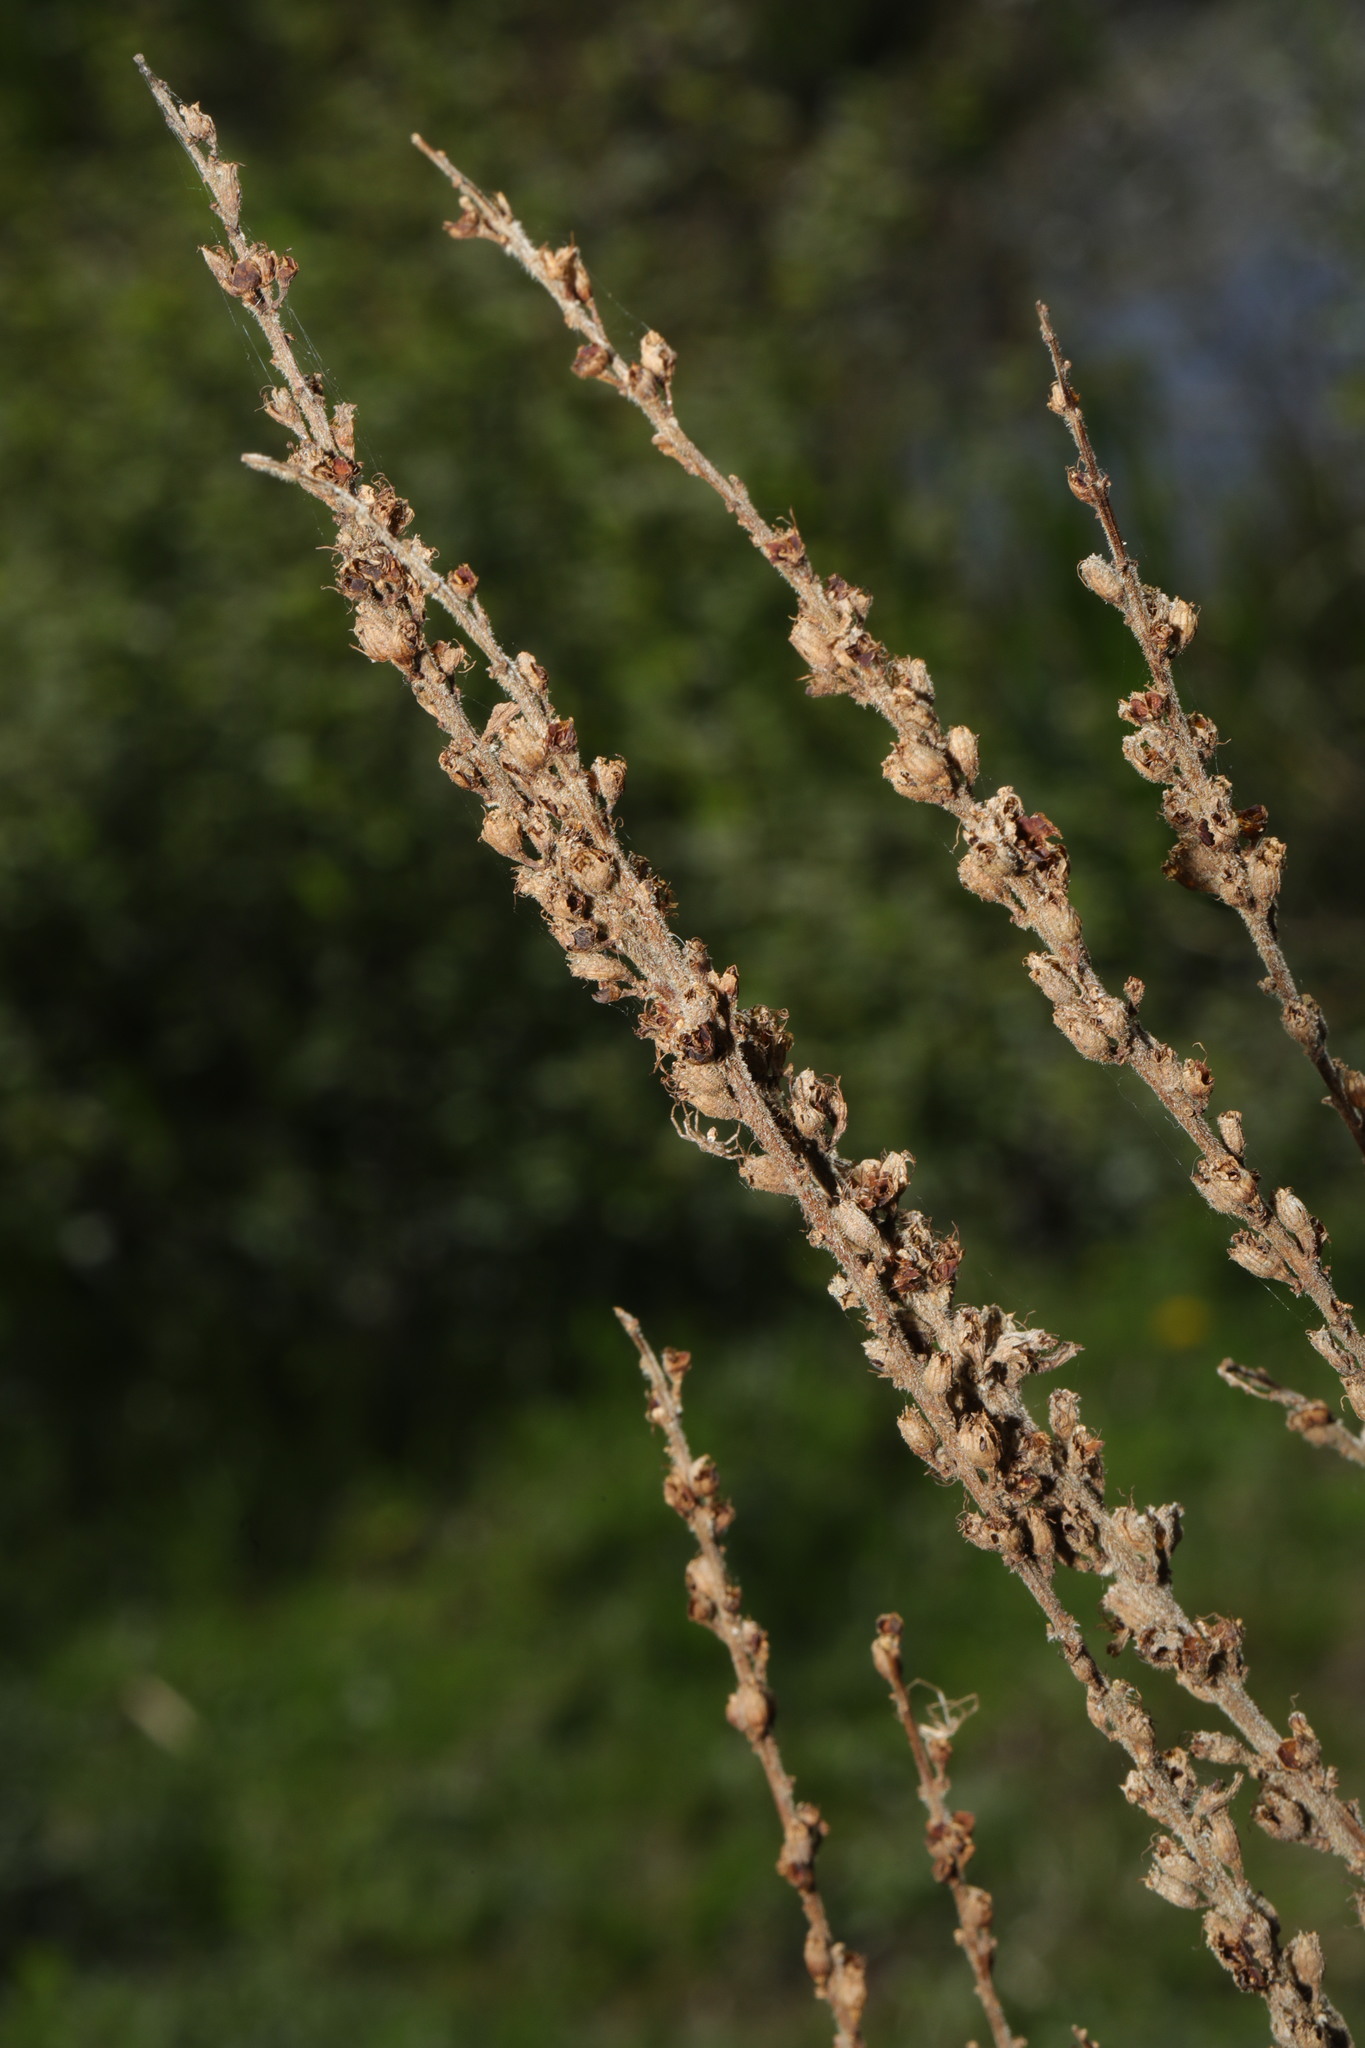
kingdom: Plantae
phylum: Tracheophyta
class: Magnoliopsida
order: Myrtales
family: Lythraceae
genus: Lythrum
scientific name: Lythrum salicaria
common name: Purple loosestrife
